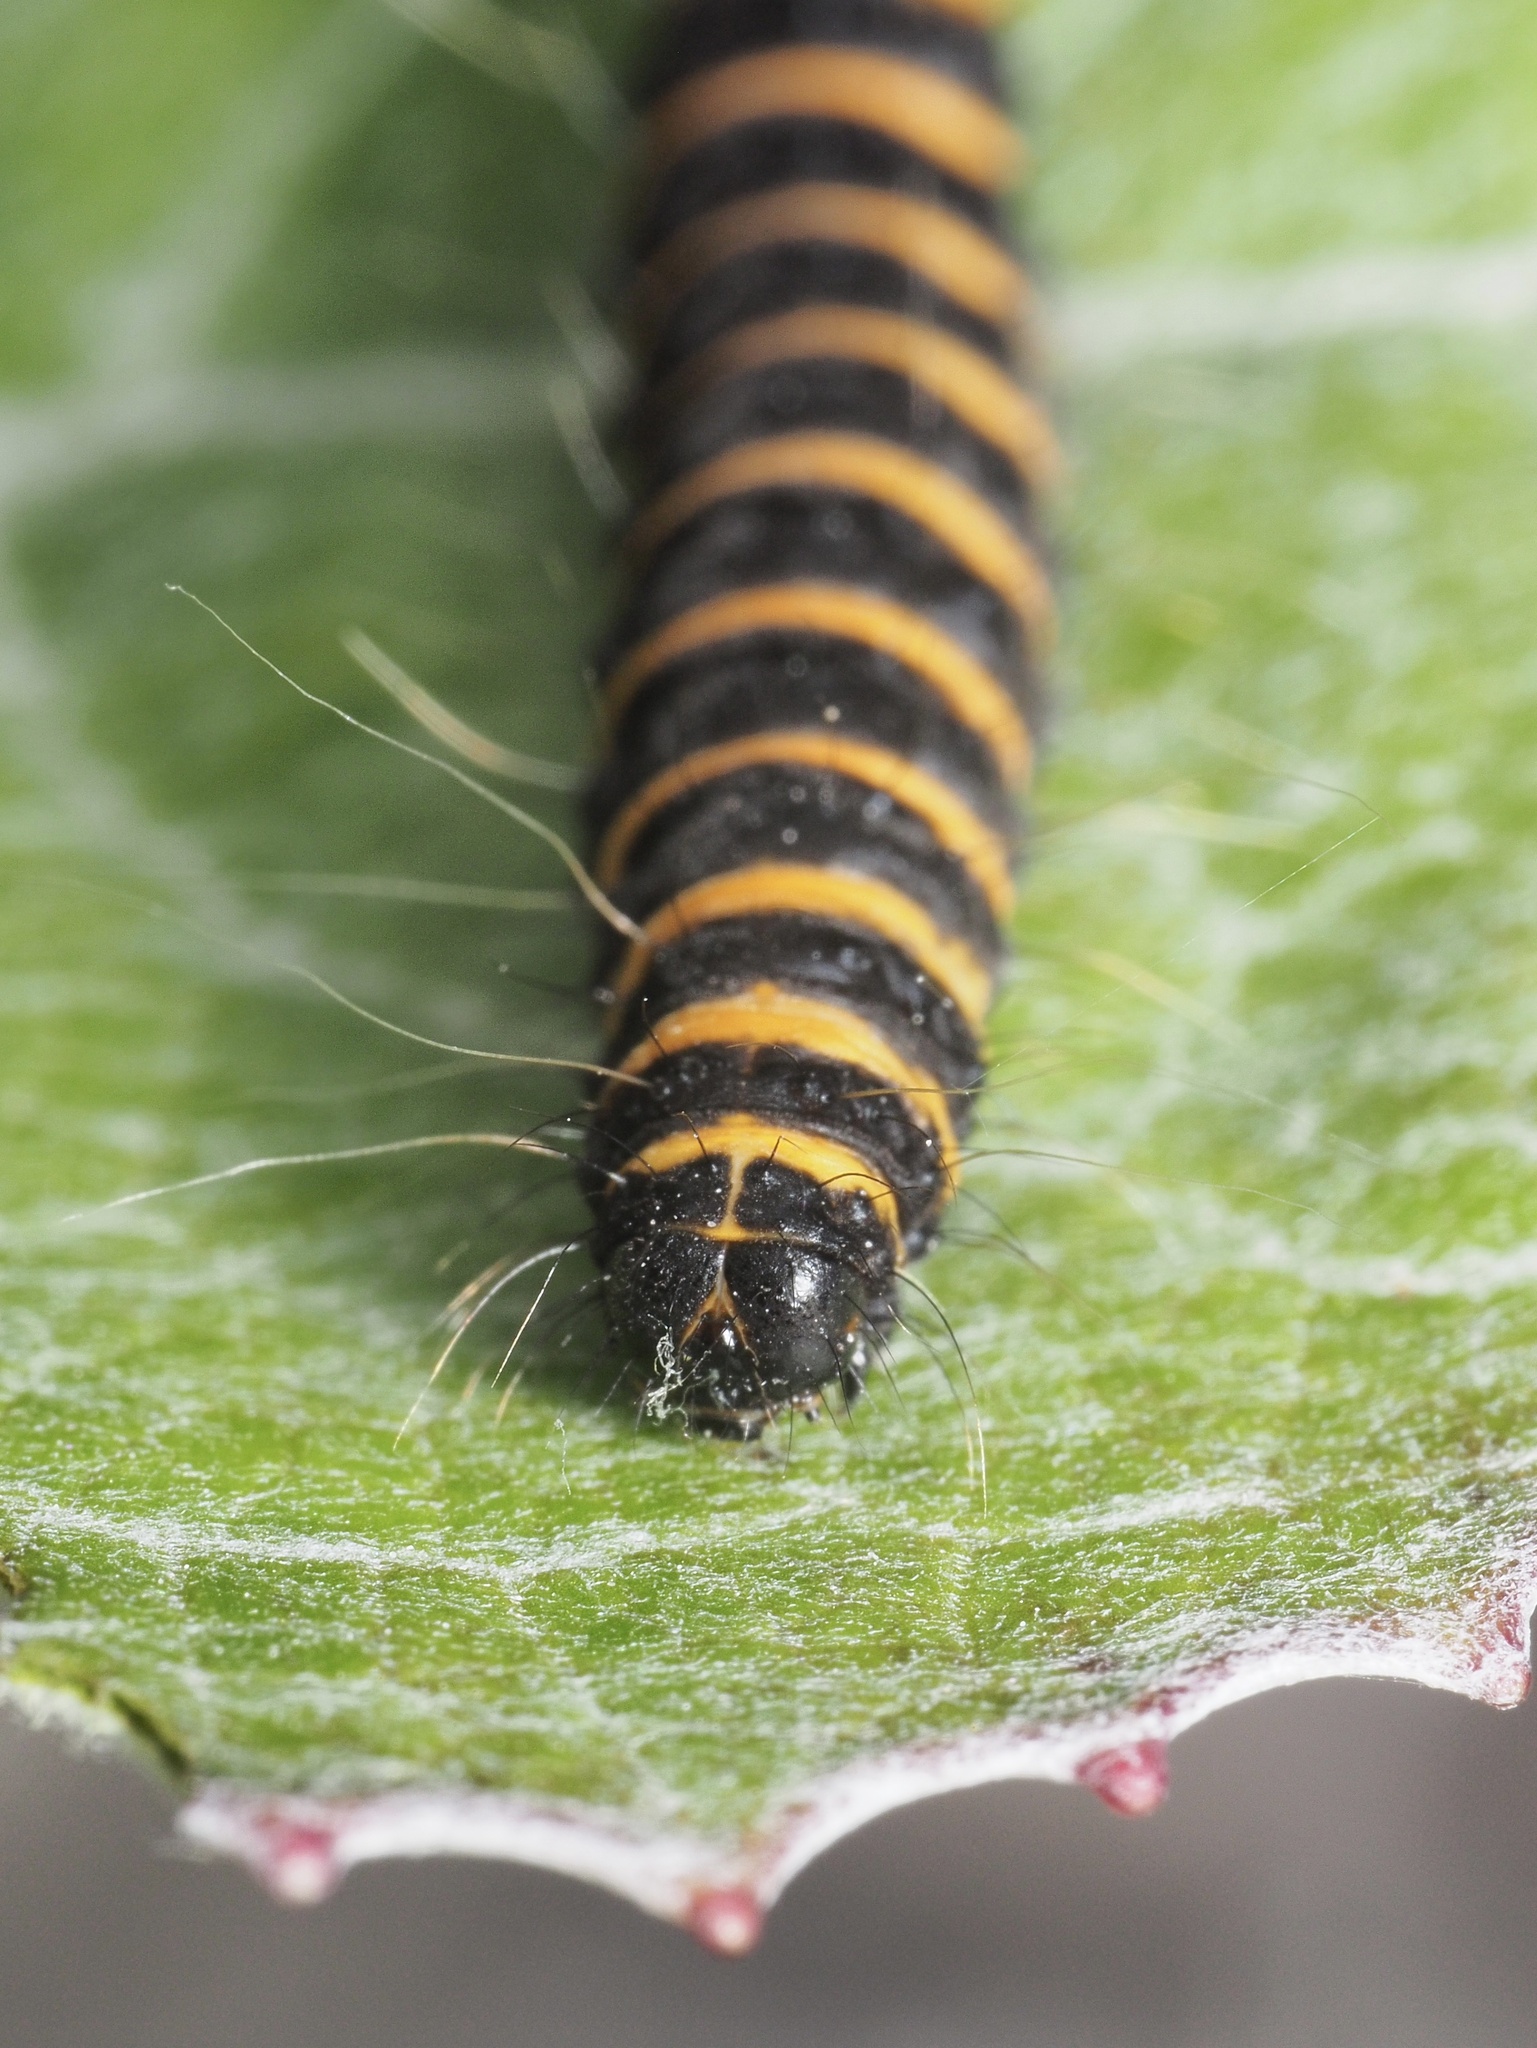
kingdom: Animalia
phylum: Arthropoda
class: Insecta
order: Lepidoptera
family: Erebidae
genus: Tyria
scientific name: Tyria jacobaeae
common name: Cinnabar
